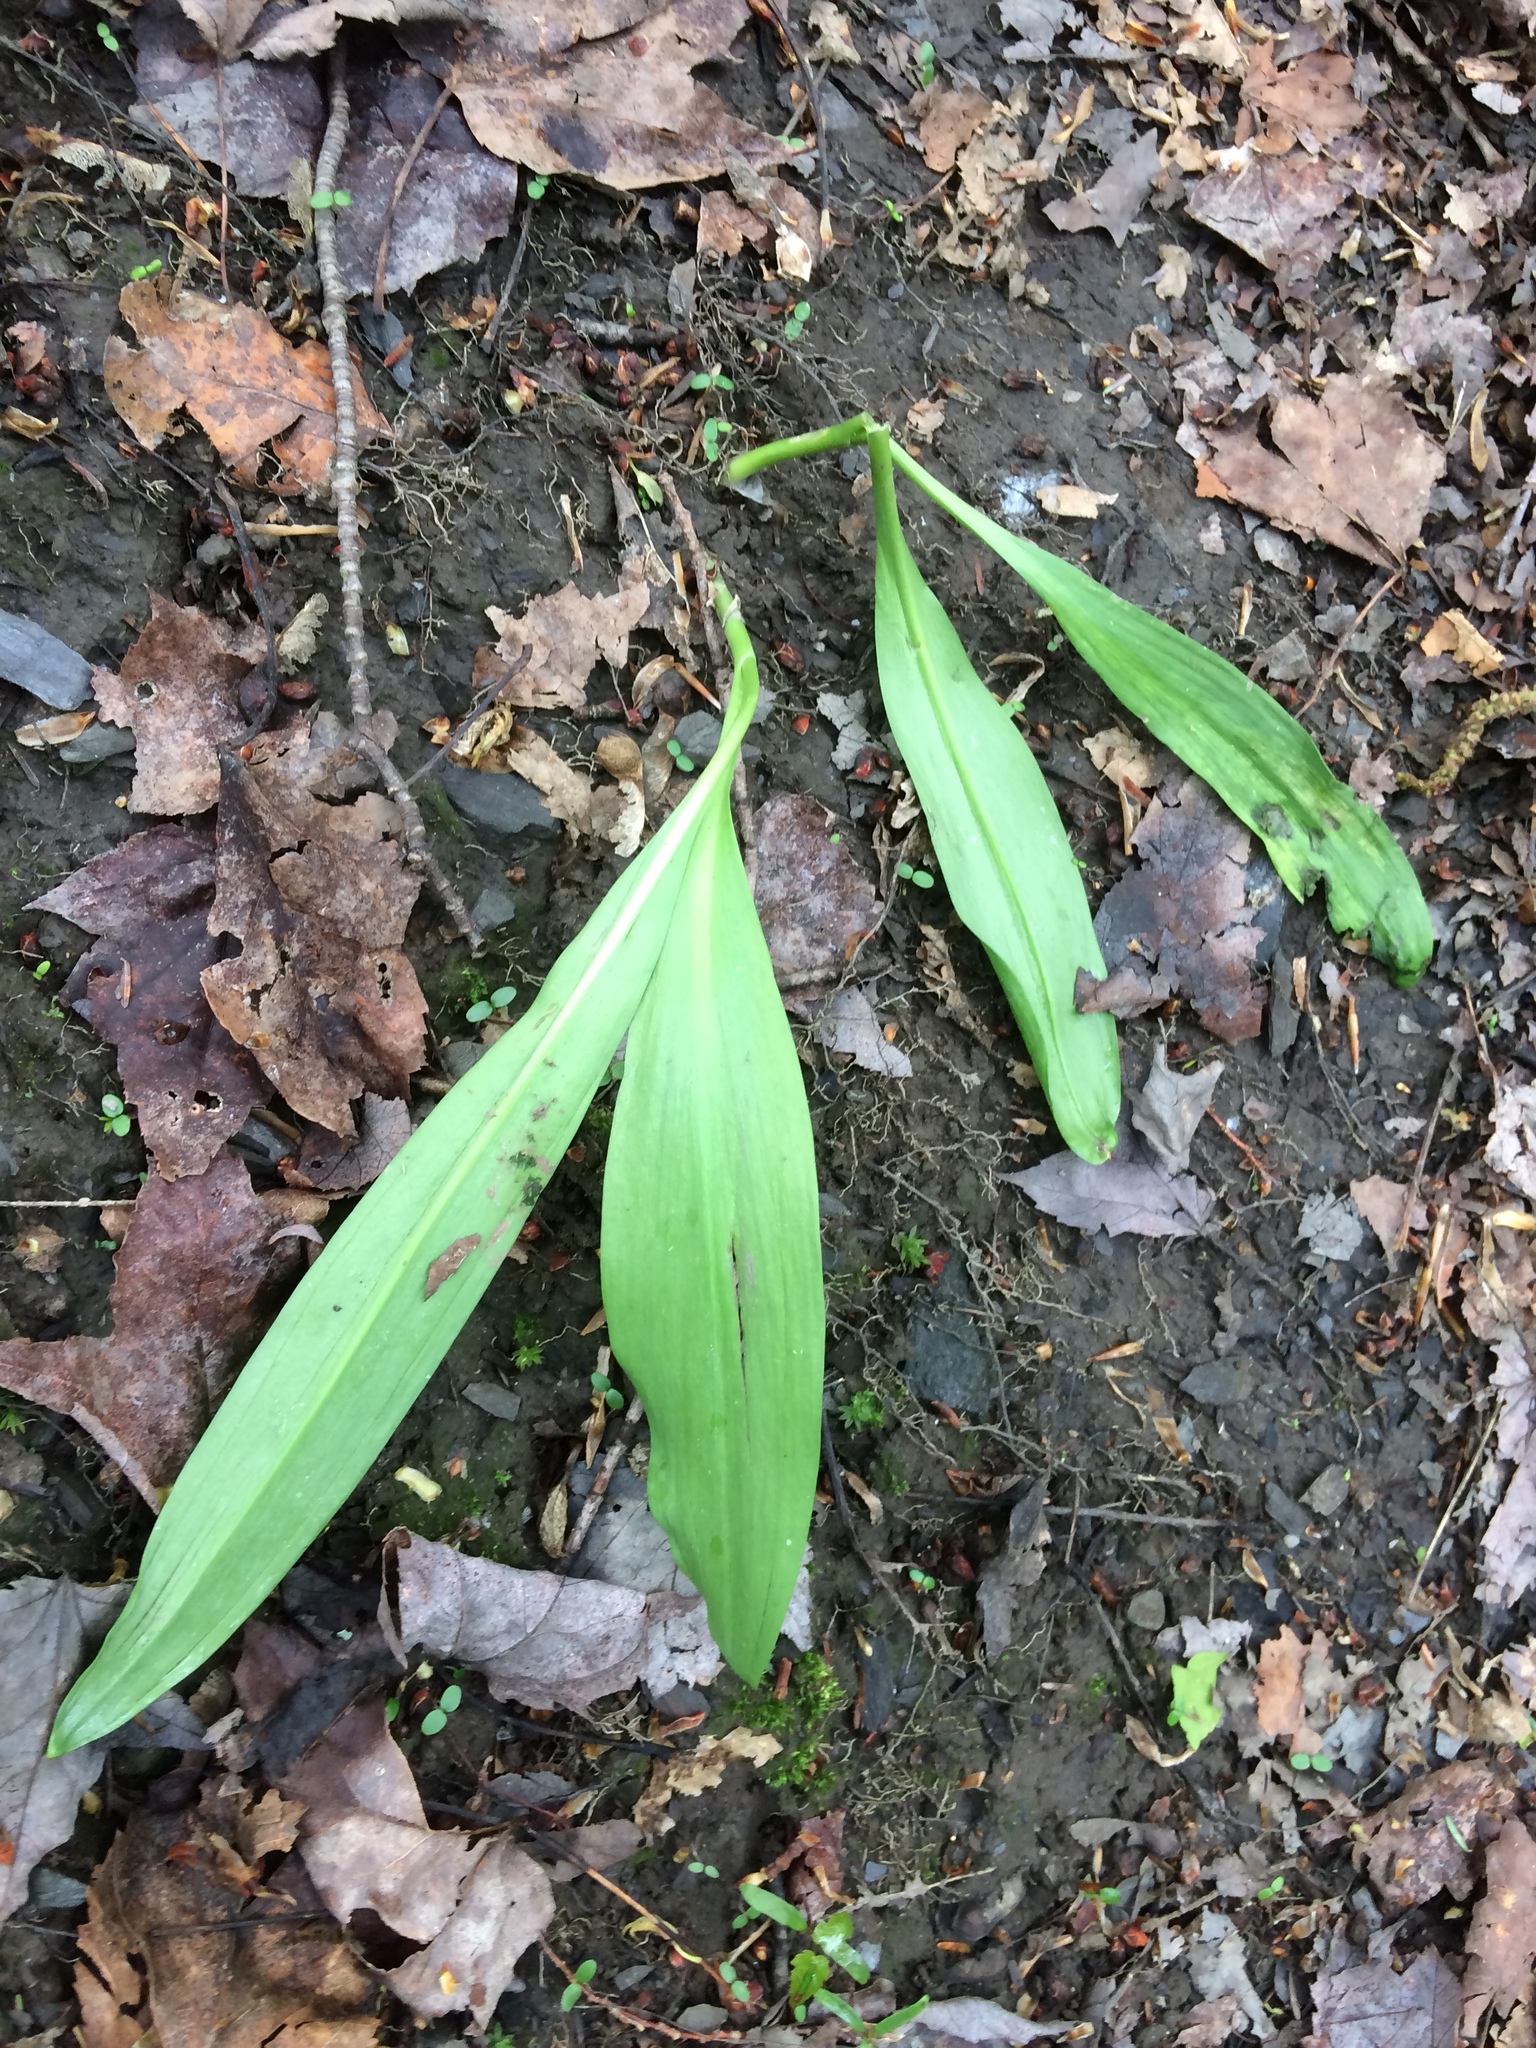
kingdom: Plantae
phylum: Tracheophyta
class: Liliopsida
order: Asparagales
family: Amaryllidaceae
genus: Allium
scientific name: Allium tricoccum
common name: Ramp
